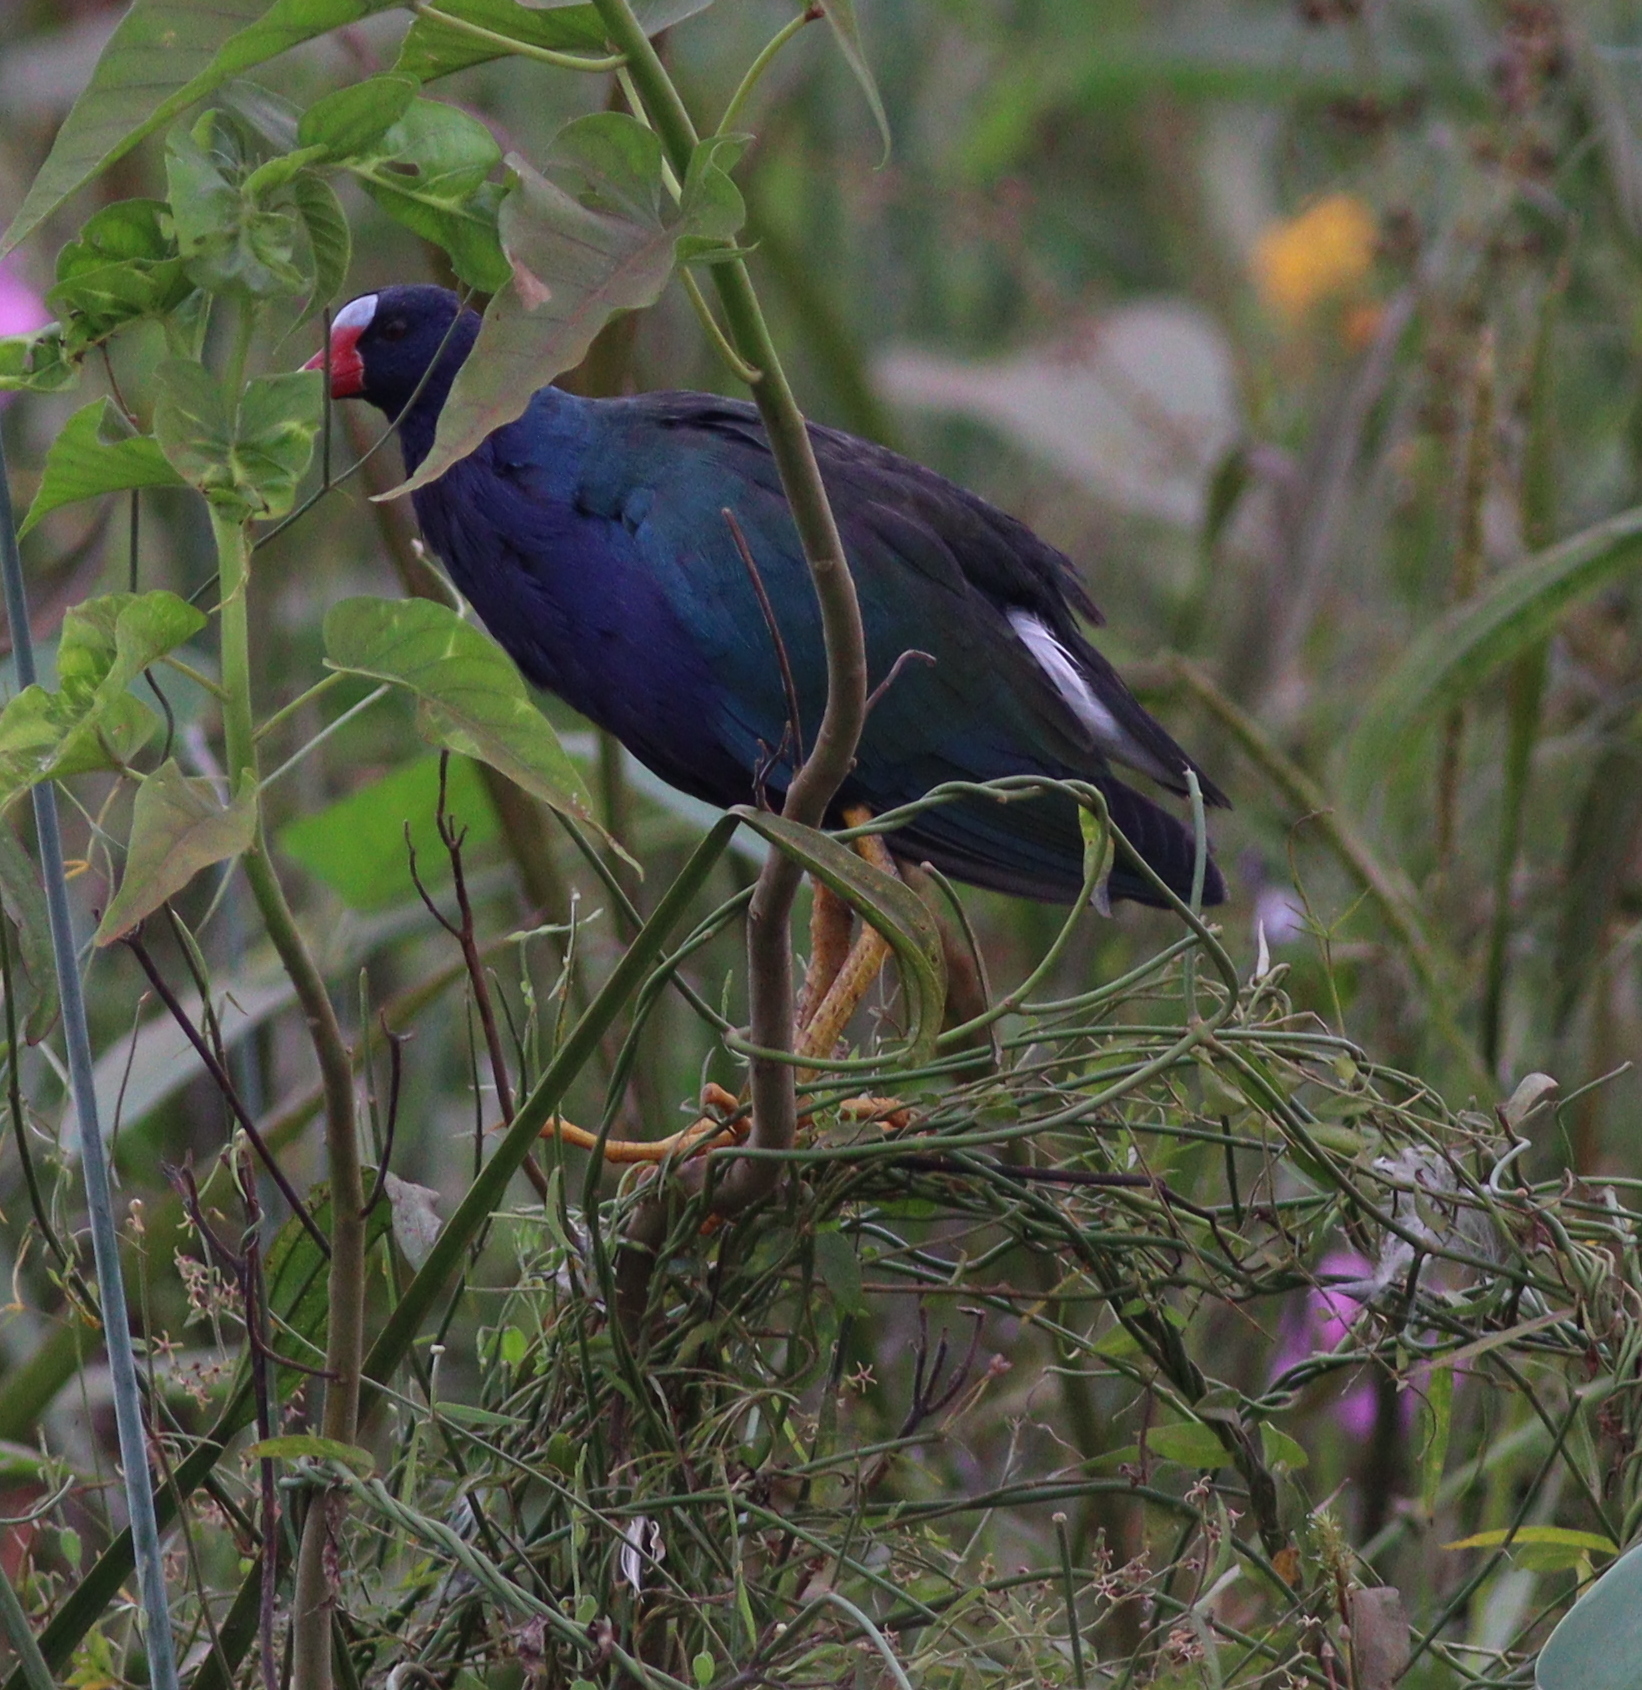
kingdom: Animalia
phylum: Chordata
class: Aves
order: Gruiformes
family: Rallidae
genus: Porphyrio
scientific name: Porphyrio martinica
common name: Purple gallinule
